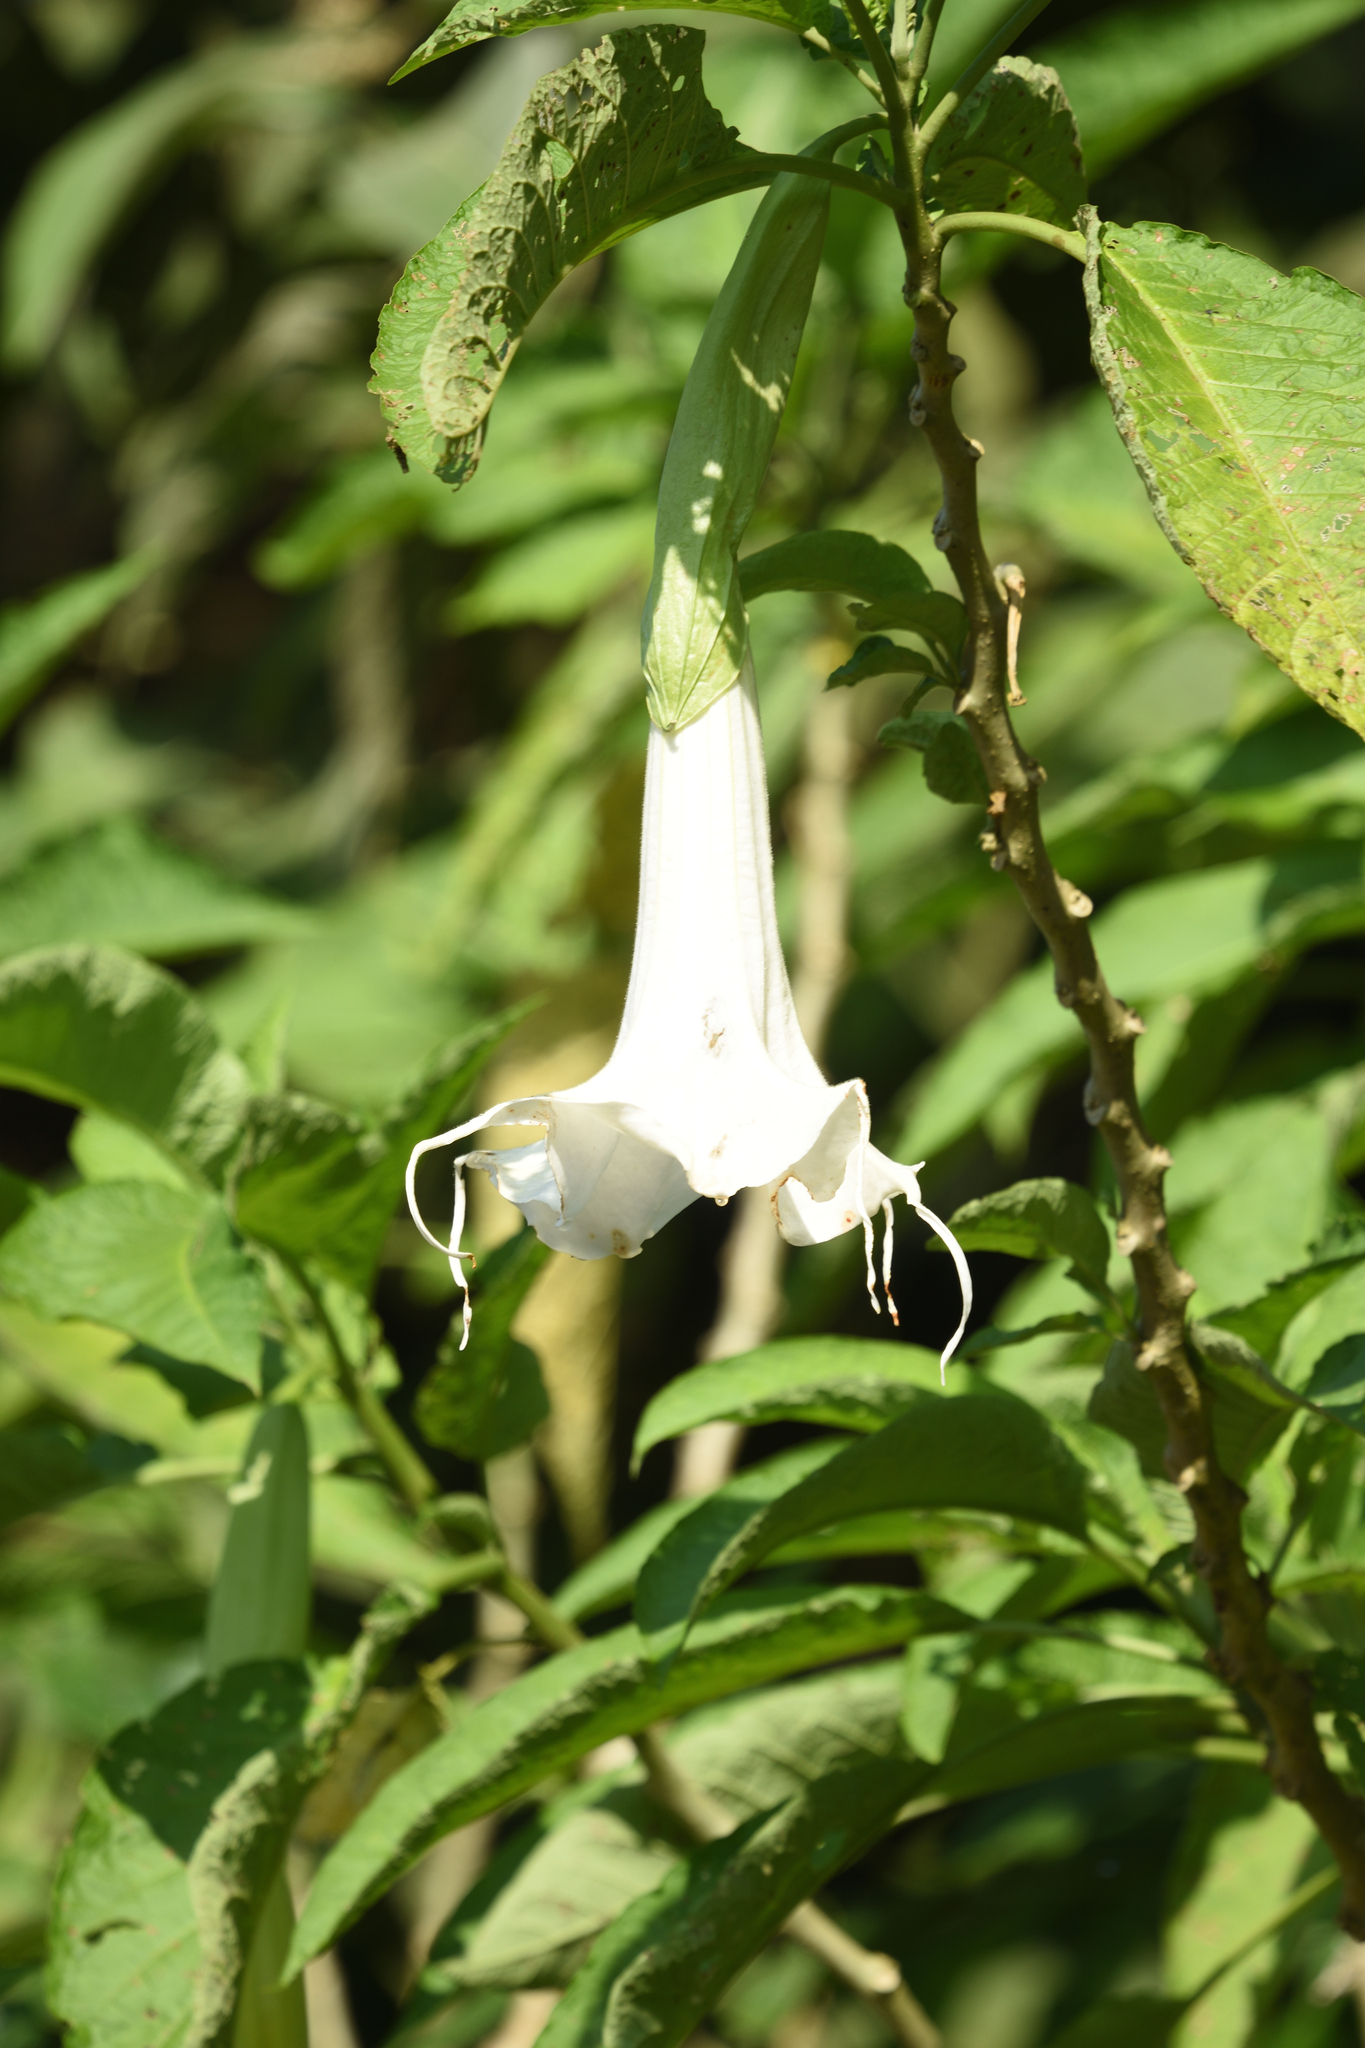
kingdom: Plantae
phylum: Tracheophyta
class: Magnoliopsida
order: Solanales
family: Solanaceae
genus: Brugmansia
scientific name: Brugmansia arborea
